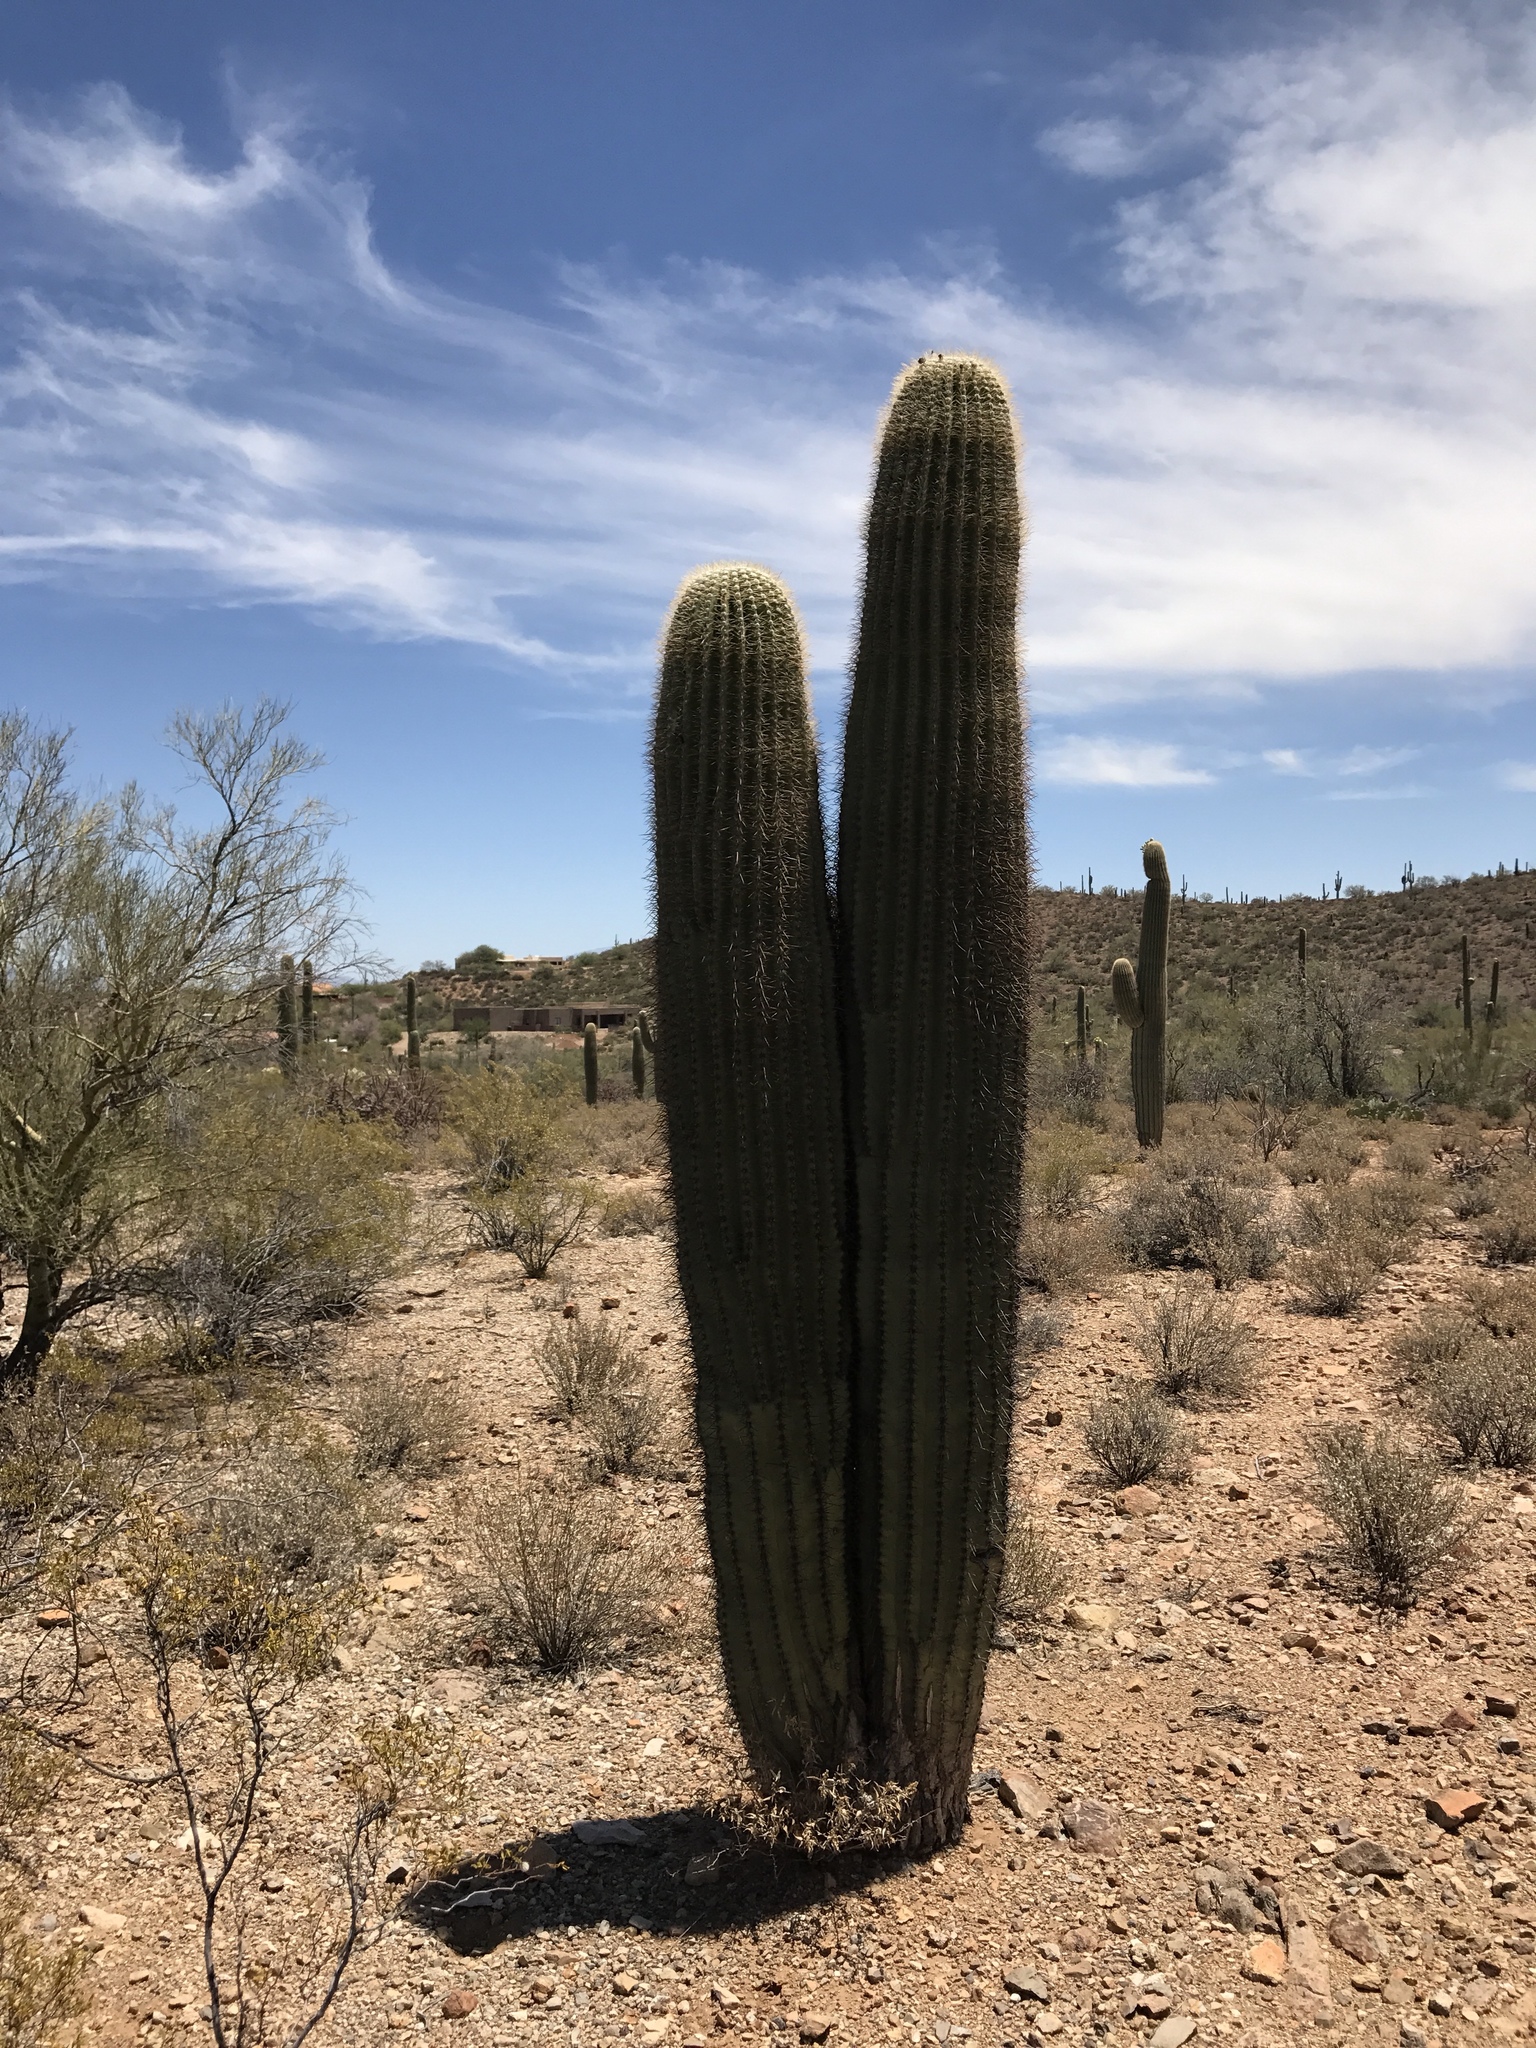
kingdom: Plantae
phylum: Tracheophyta
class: Magnoliopsida
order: Caryophyllales
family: Cactaceae
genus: Carnegiea
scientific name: Carnegiea gigantea
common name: Saguaro
